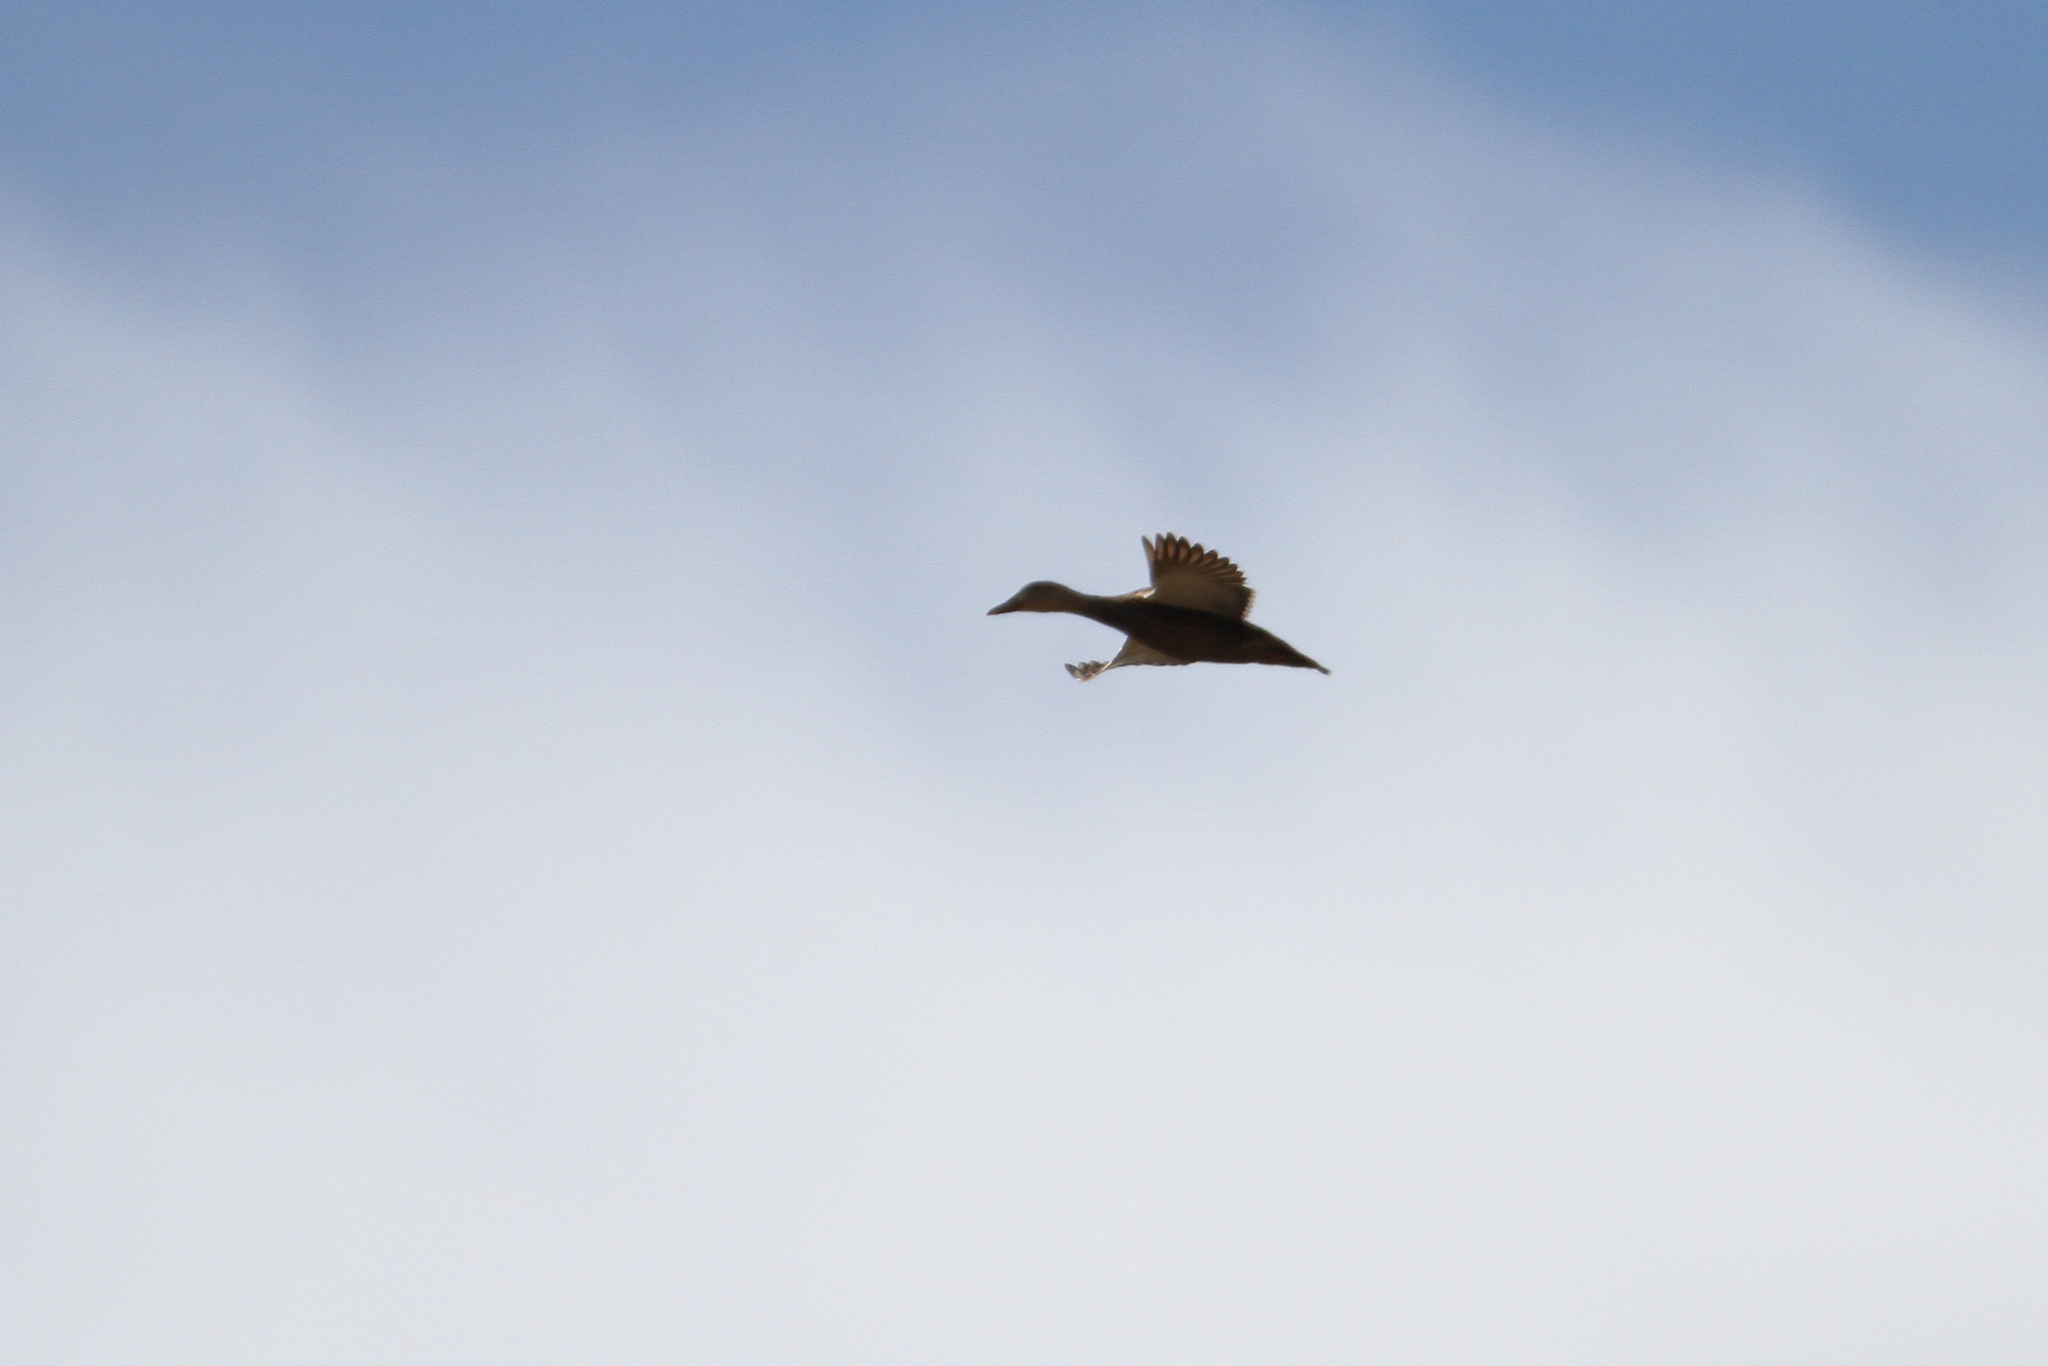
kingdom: Animalia
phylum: Chordata
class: Aves
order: Anseriformes
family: Anatidae
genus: Anas
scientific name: Anas diazi
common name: Mexican duck
